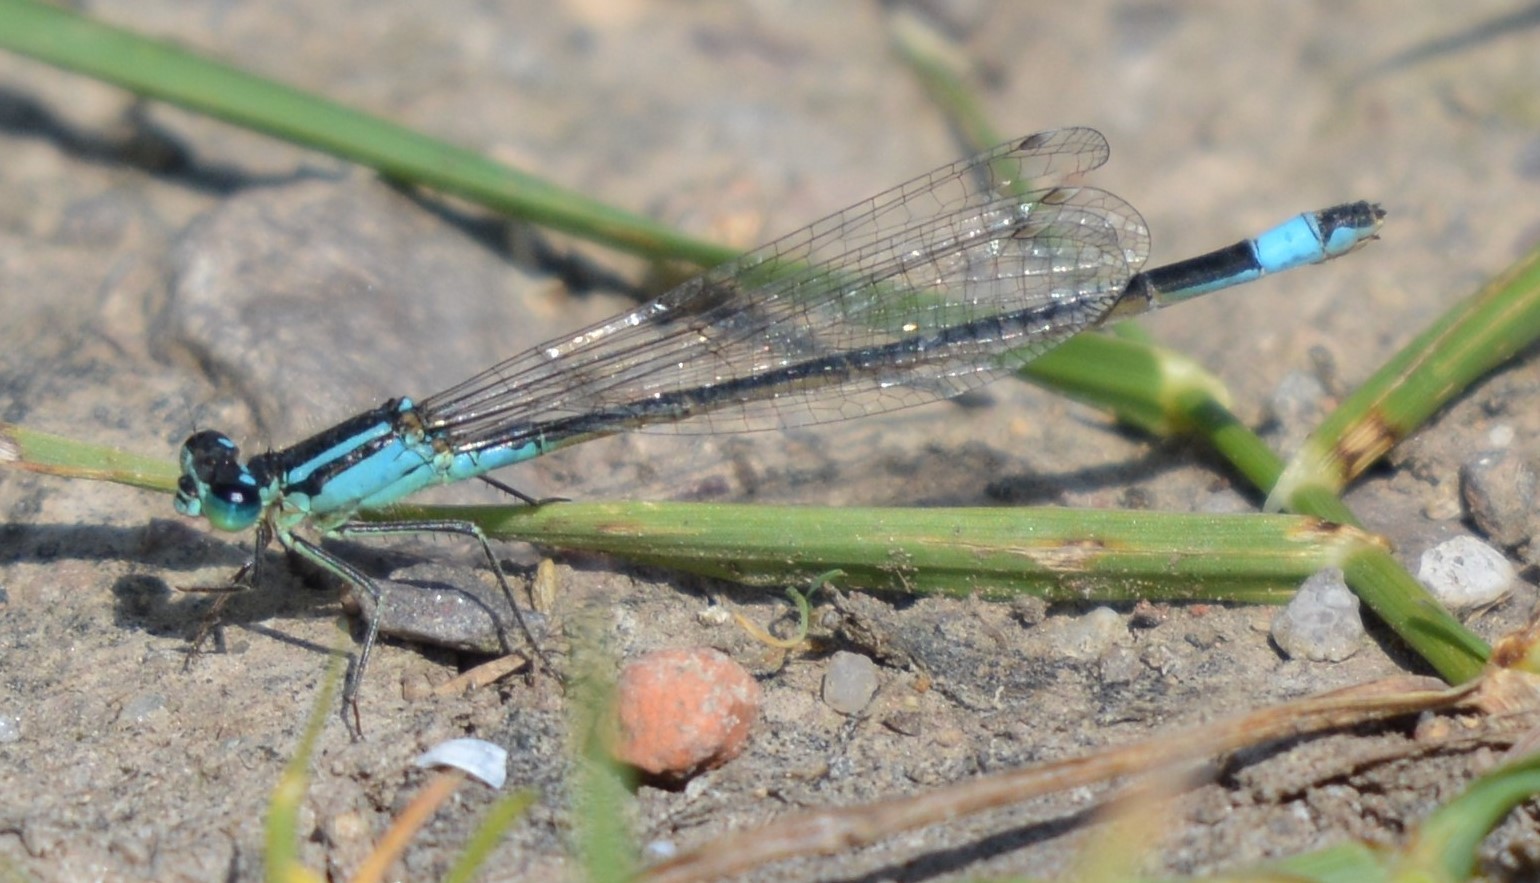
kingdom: Animalia
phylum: Arthropoda
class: Insecta
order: Odonata
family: Coenagrionidae
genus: Ischnura
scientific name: Ischnura elegans
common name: Blue-tailed damselfly
